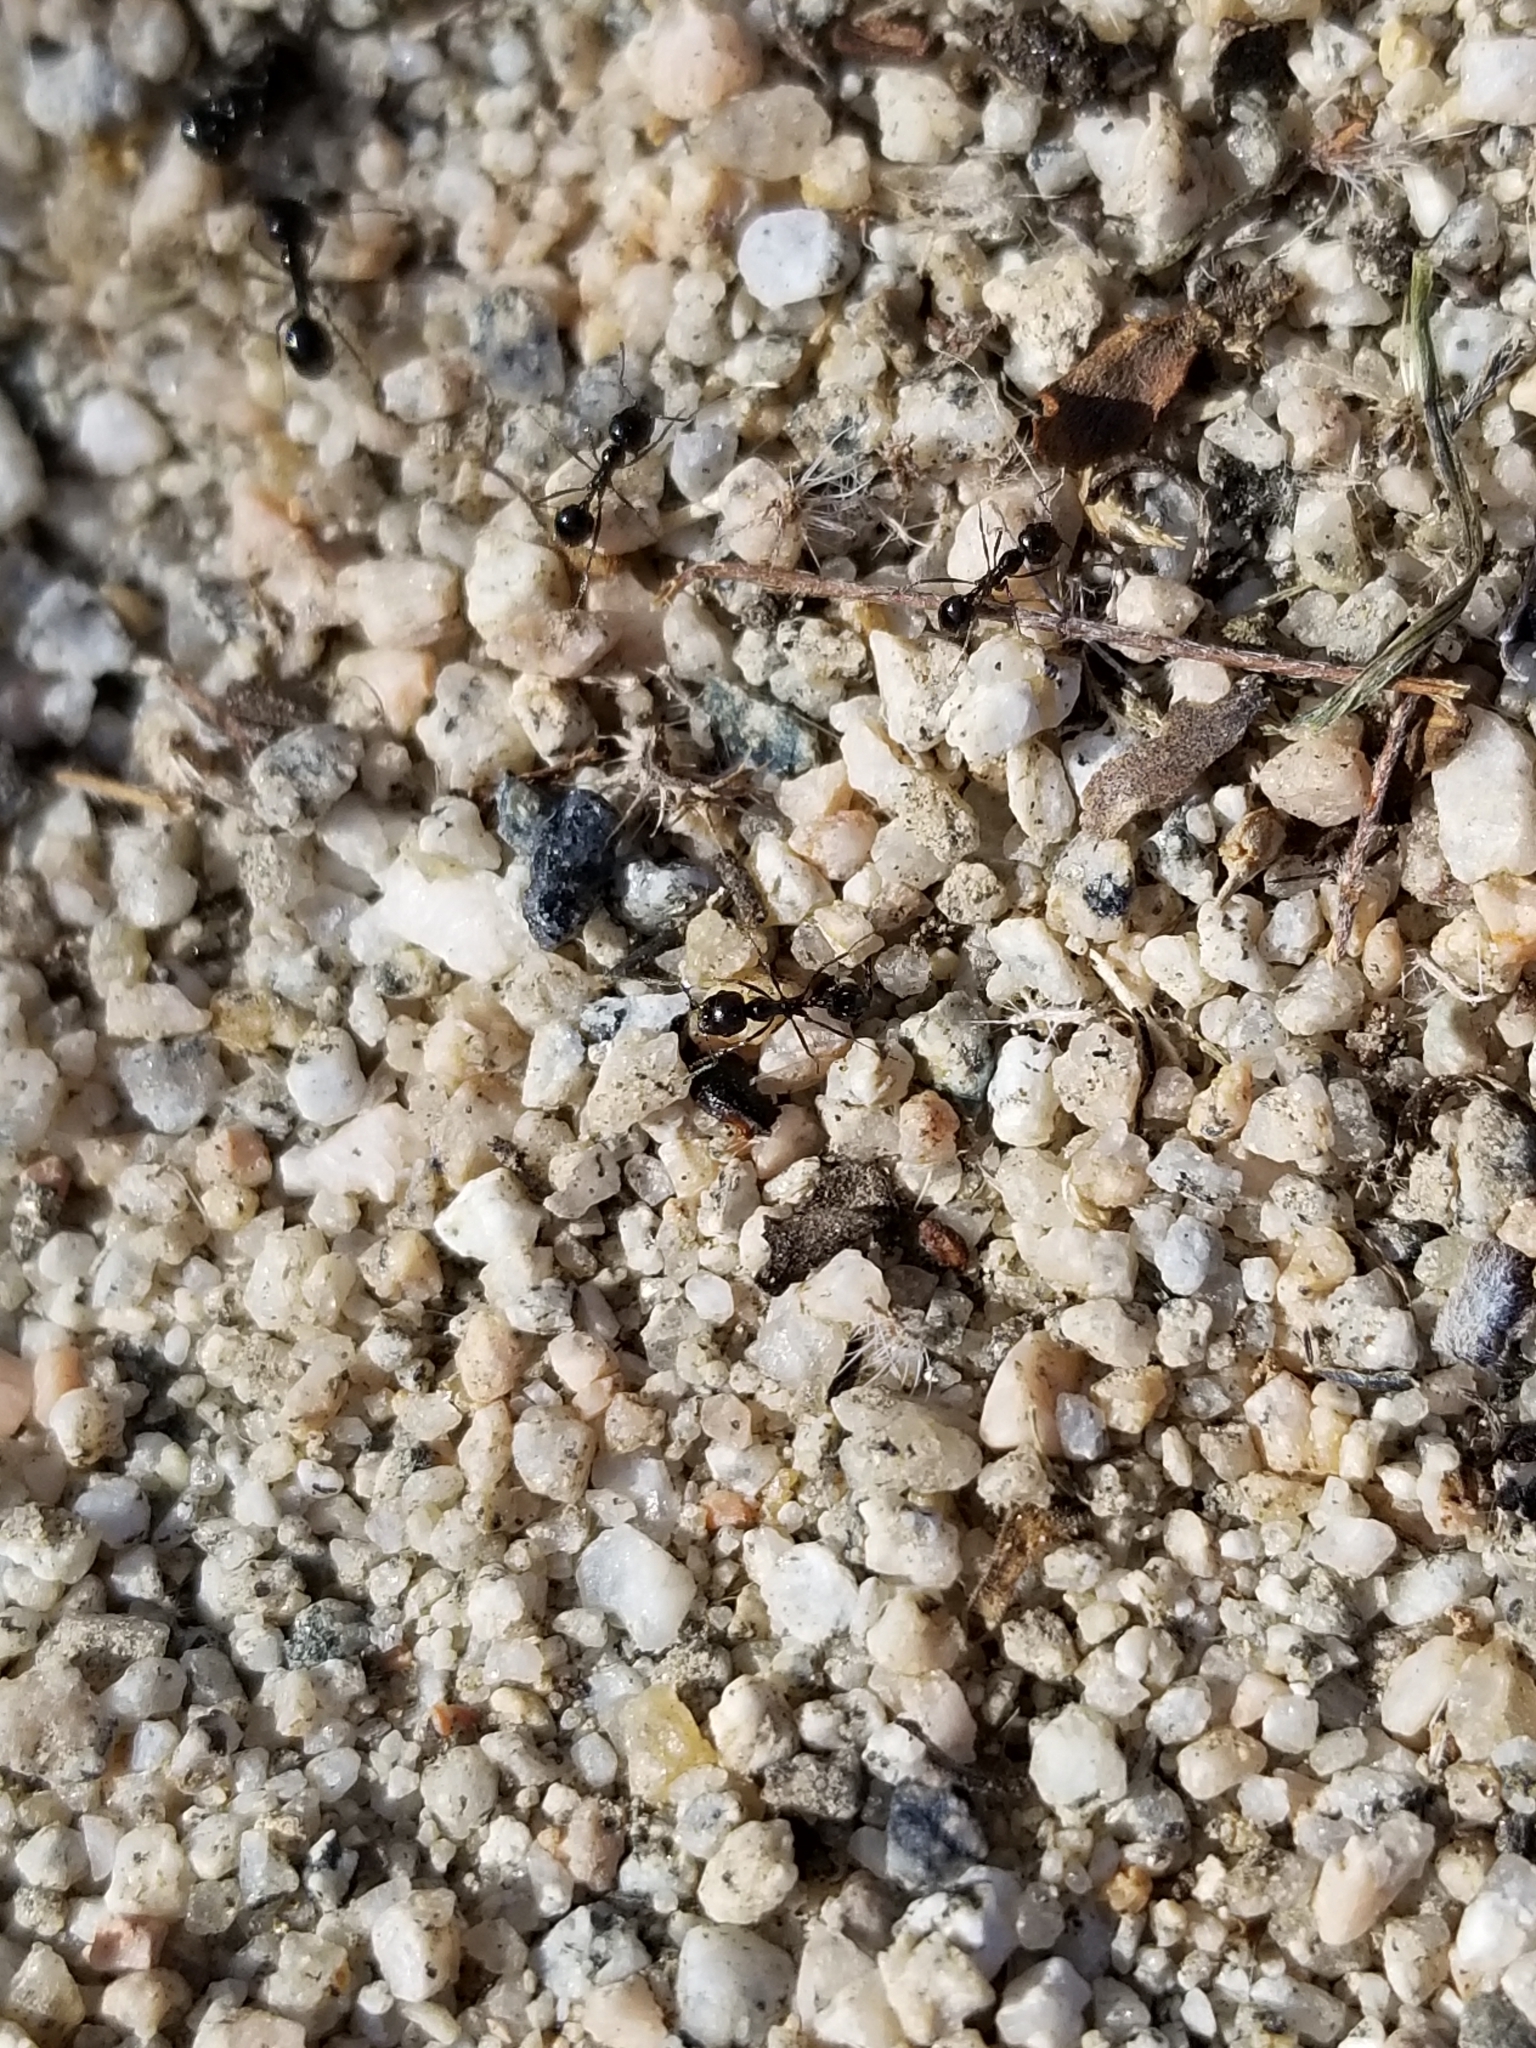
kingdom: Animalia
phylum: Arthropoda
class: Insecta
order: Hymenoptera
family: Formicidae
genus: Messor
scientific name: Messor pergandei
